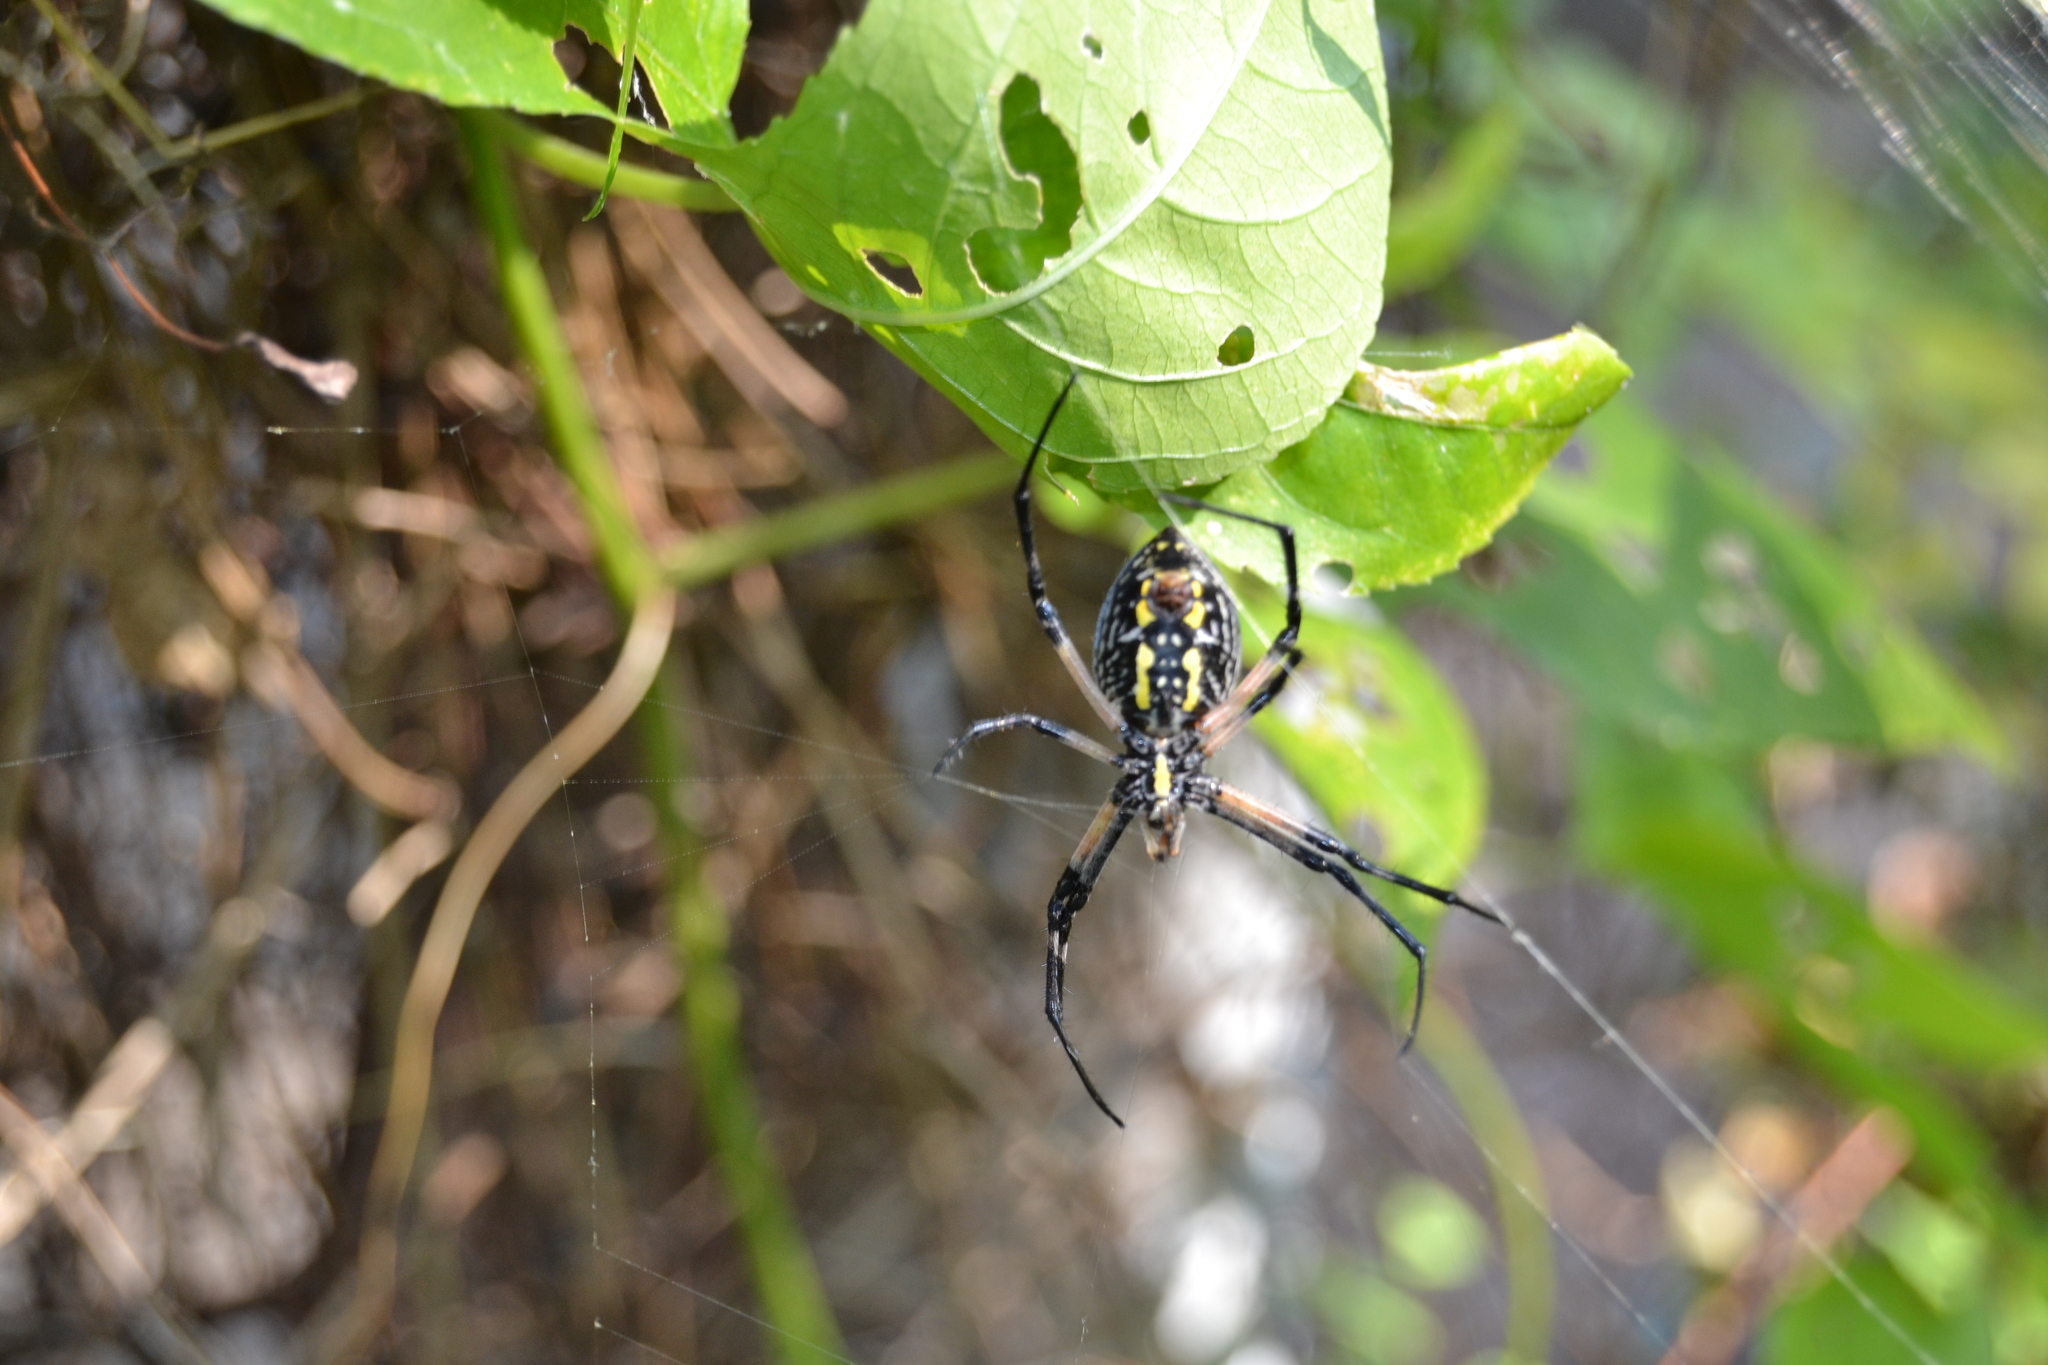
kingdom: Animalia
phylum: Arthropoda
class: Arachnida
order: Araneae
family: Araneidae
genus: Argiope
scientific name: Argiope aurantia
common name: Orb weavers
